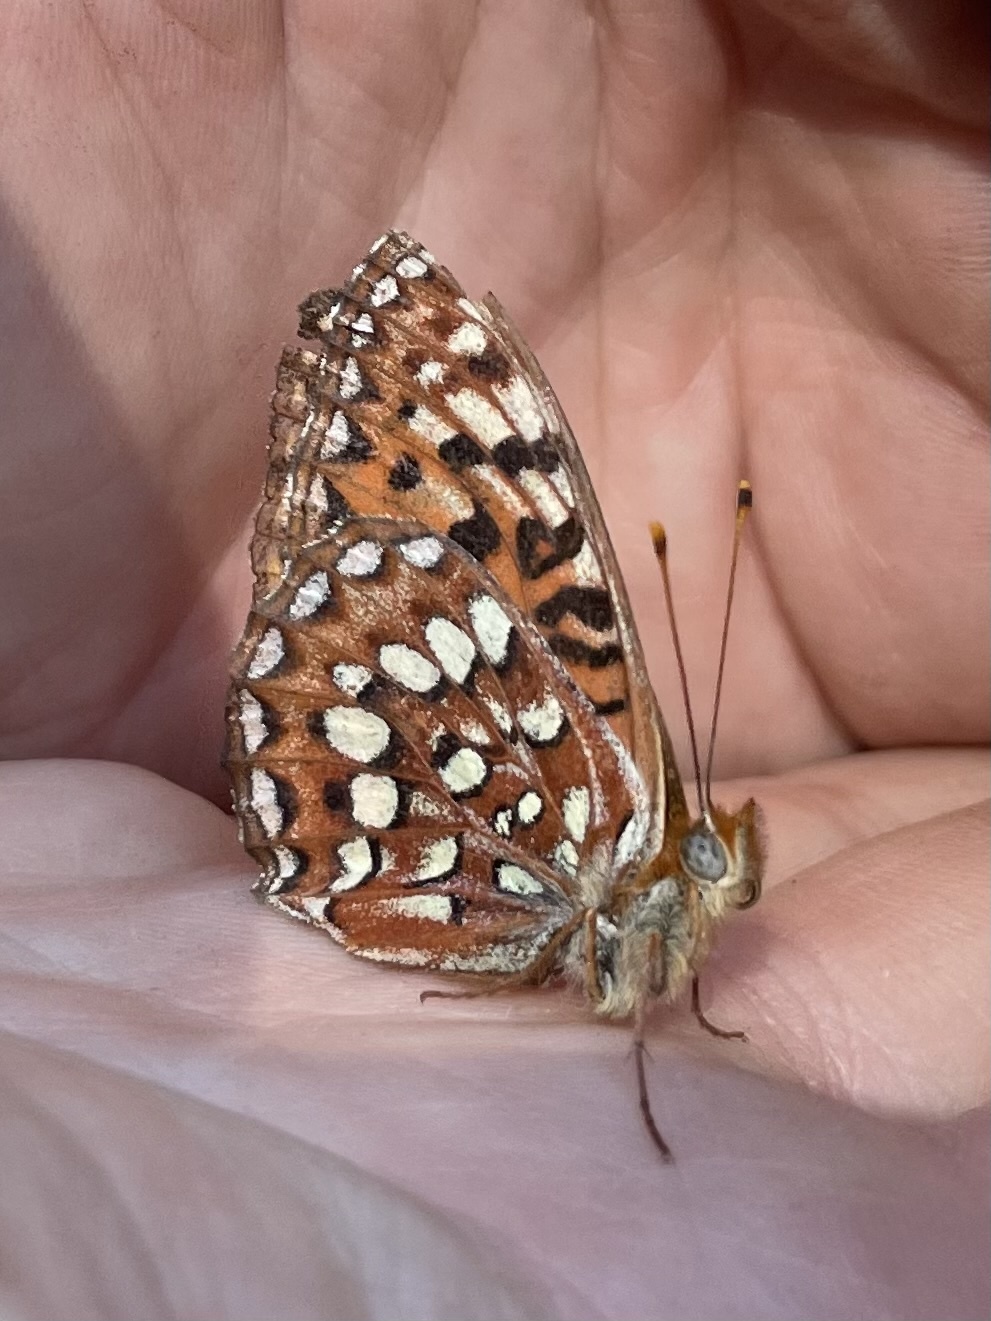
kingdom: Animalia
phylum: Arthropoda
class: Insecta
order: Lepidoptera
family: Nymphalidae
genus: Speyeria
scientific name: Speyeria hydaspe
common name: Hydaspe fritillary
